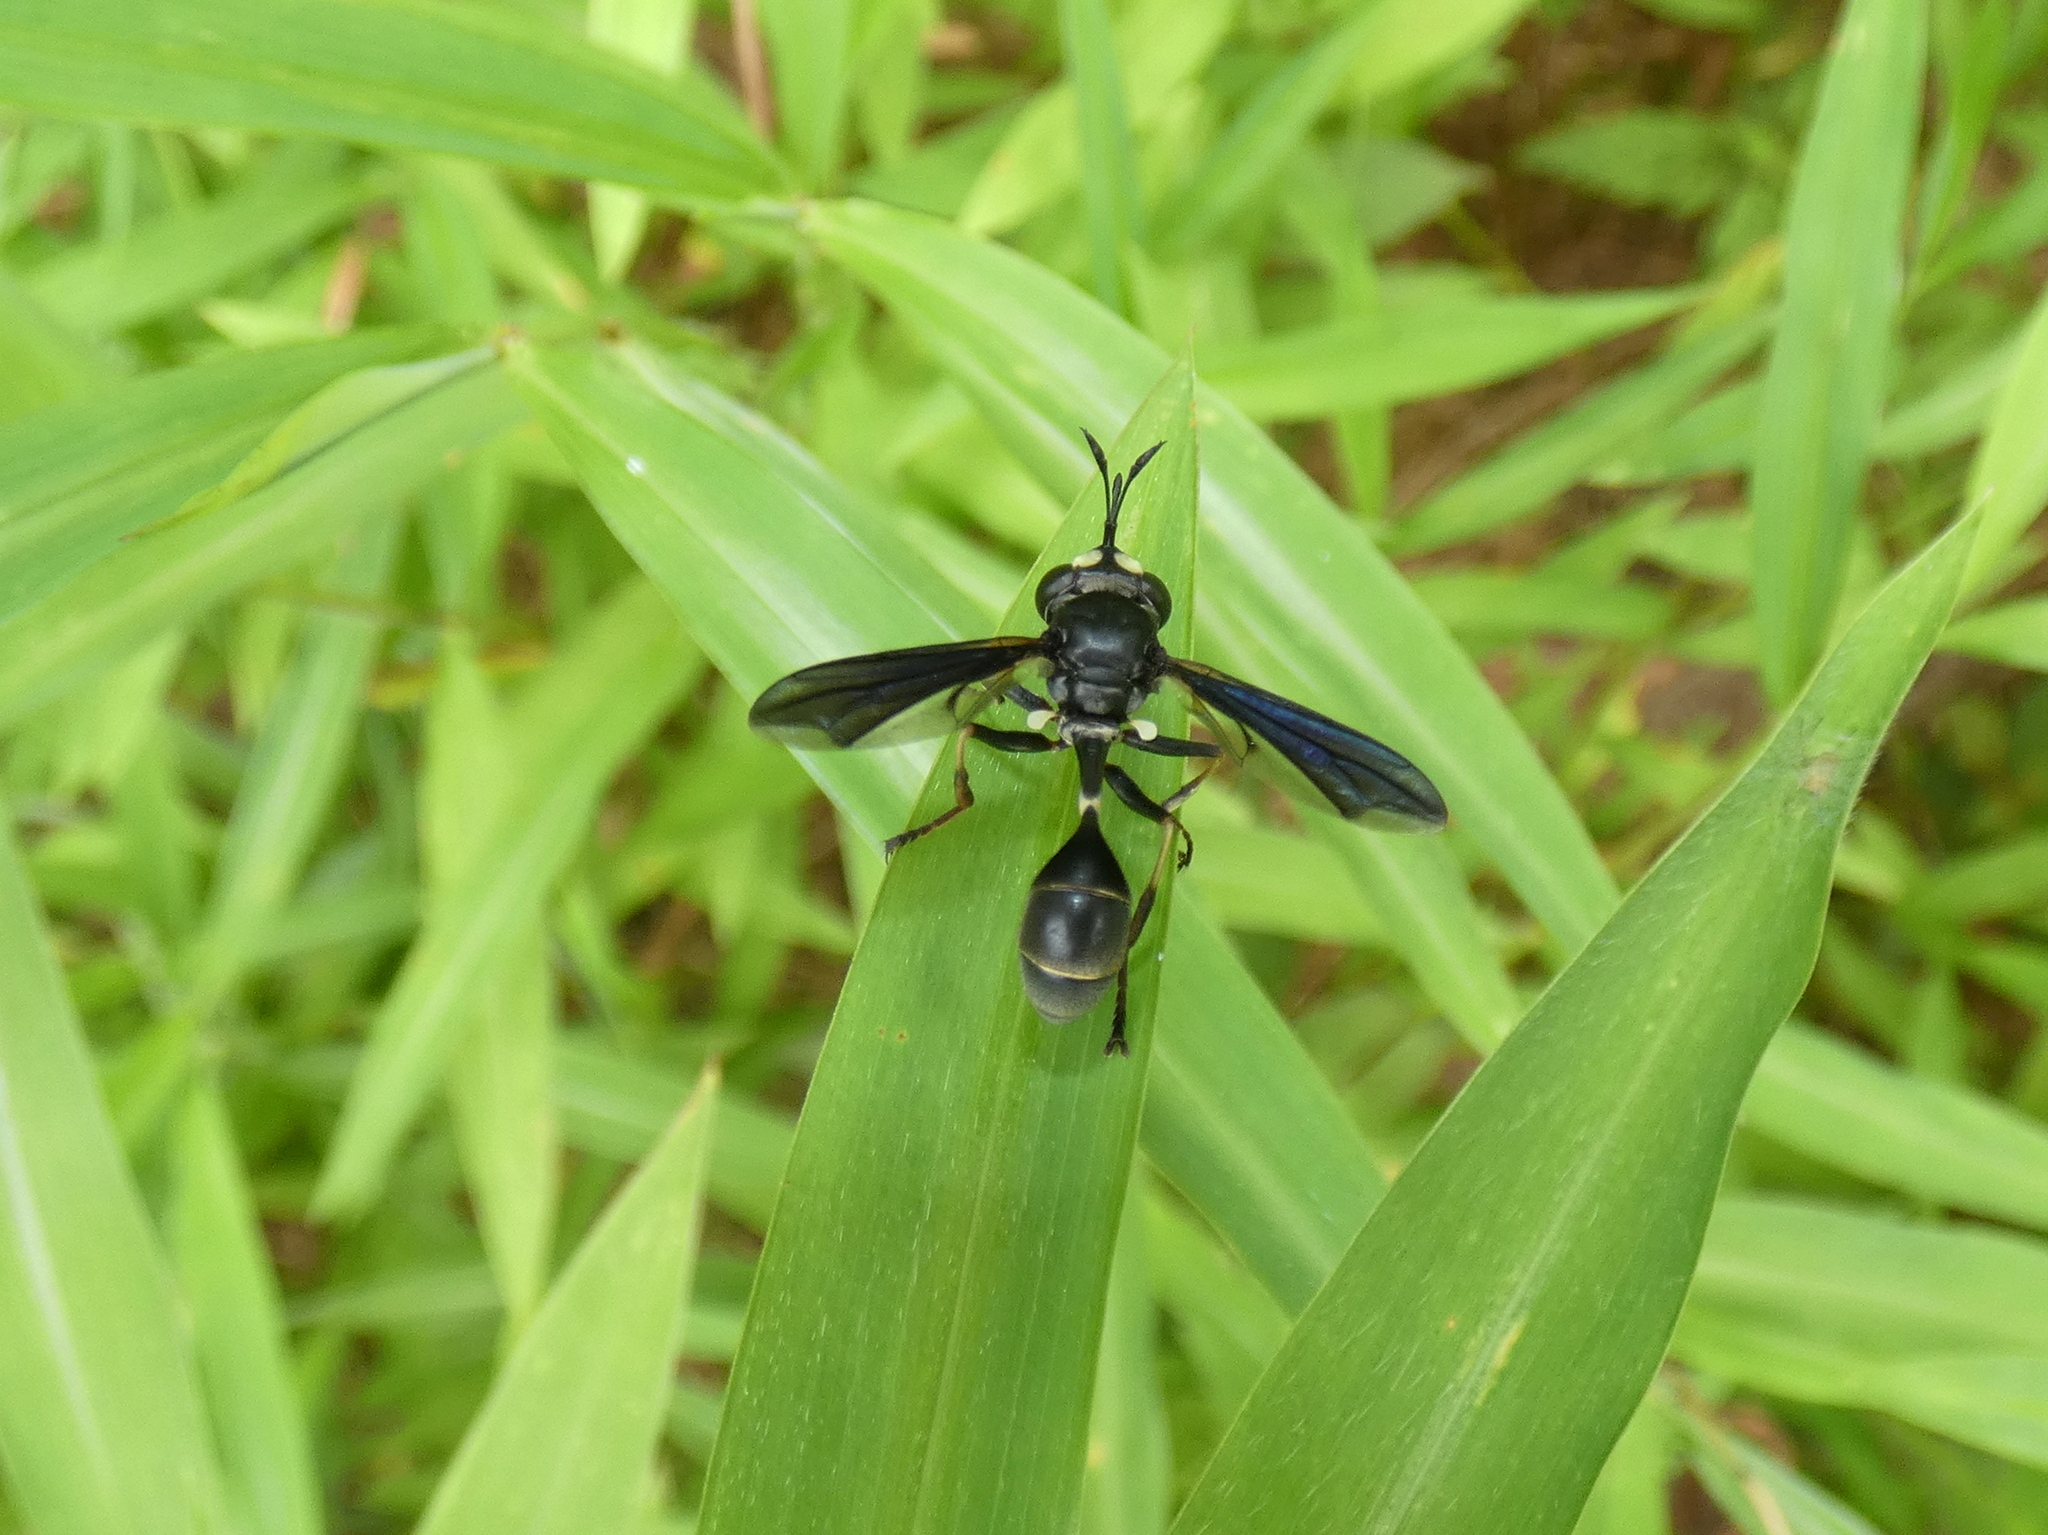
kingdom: Animalia
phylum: Arthropoda
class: Insecta
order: Diptera
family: Conopidae
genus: Physocephala
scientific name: Physocephala tibialis
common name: Common eastern physocephala
